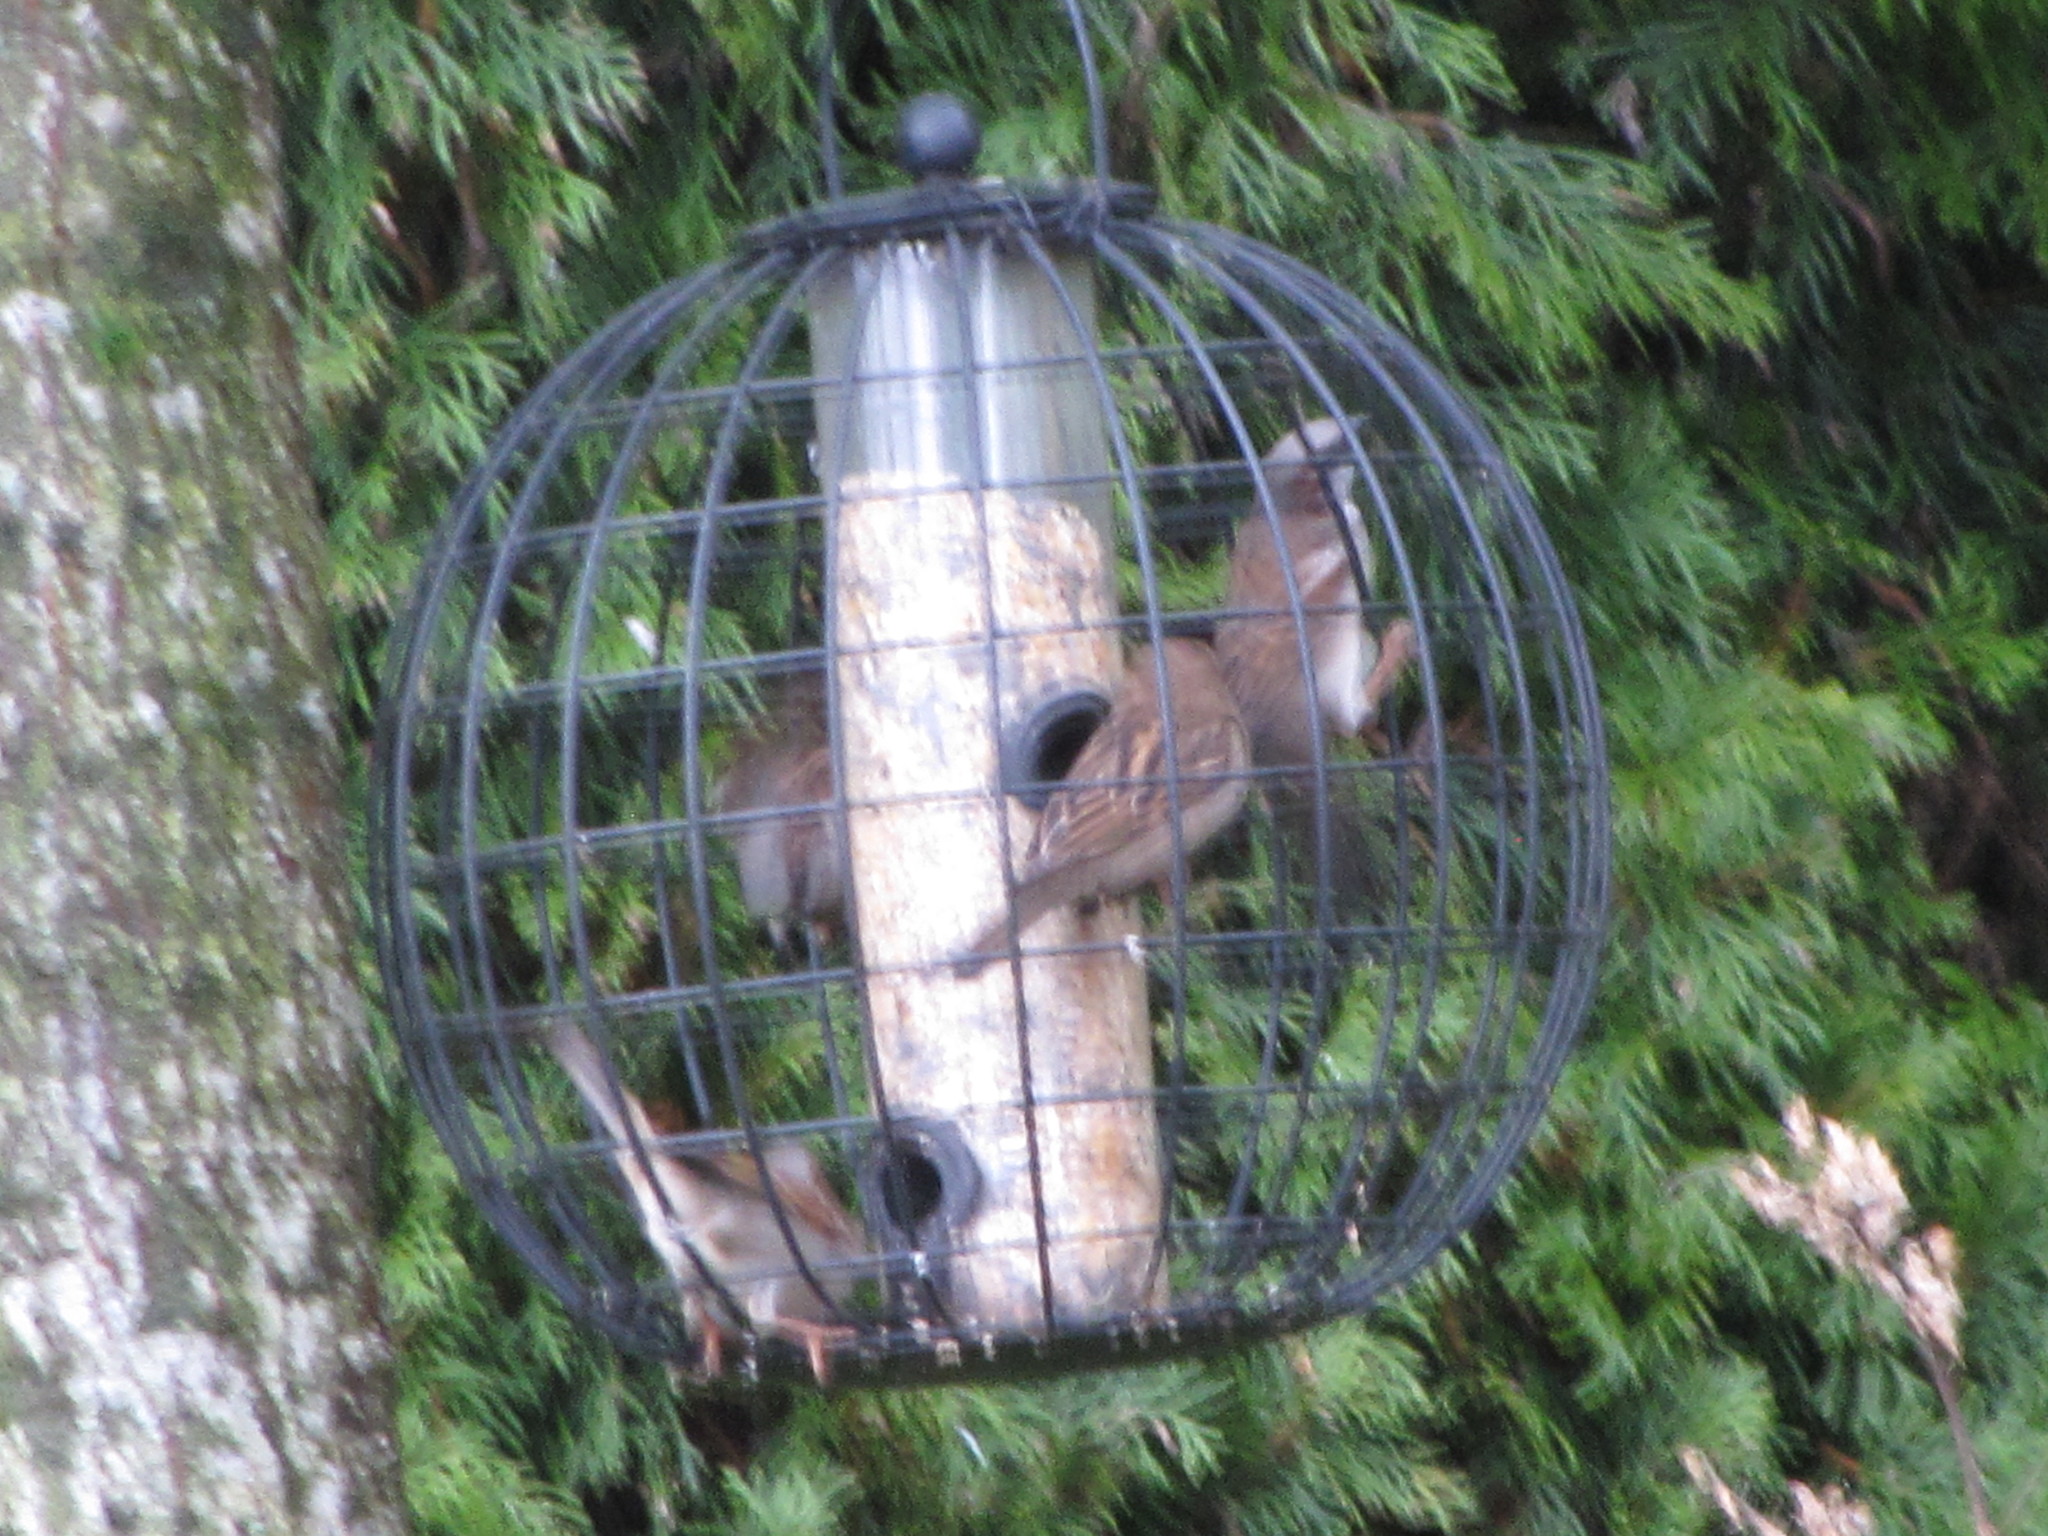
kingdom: Animalia
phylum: Chordata
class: Aves
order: Passeriformes
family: Passeridae
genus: Passer
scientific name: Passer domesticus
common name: House sparrow
